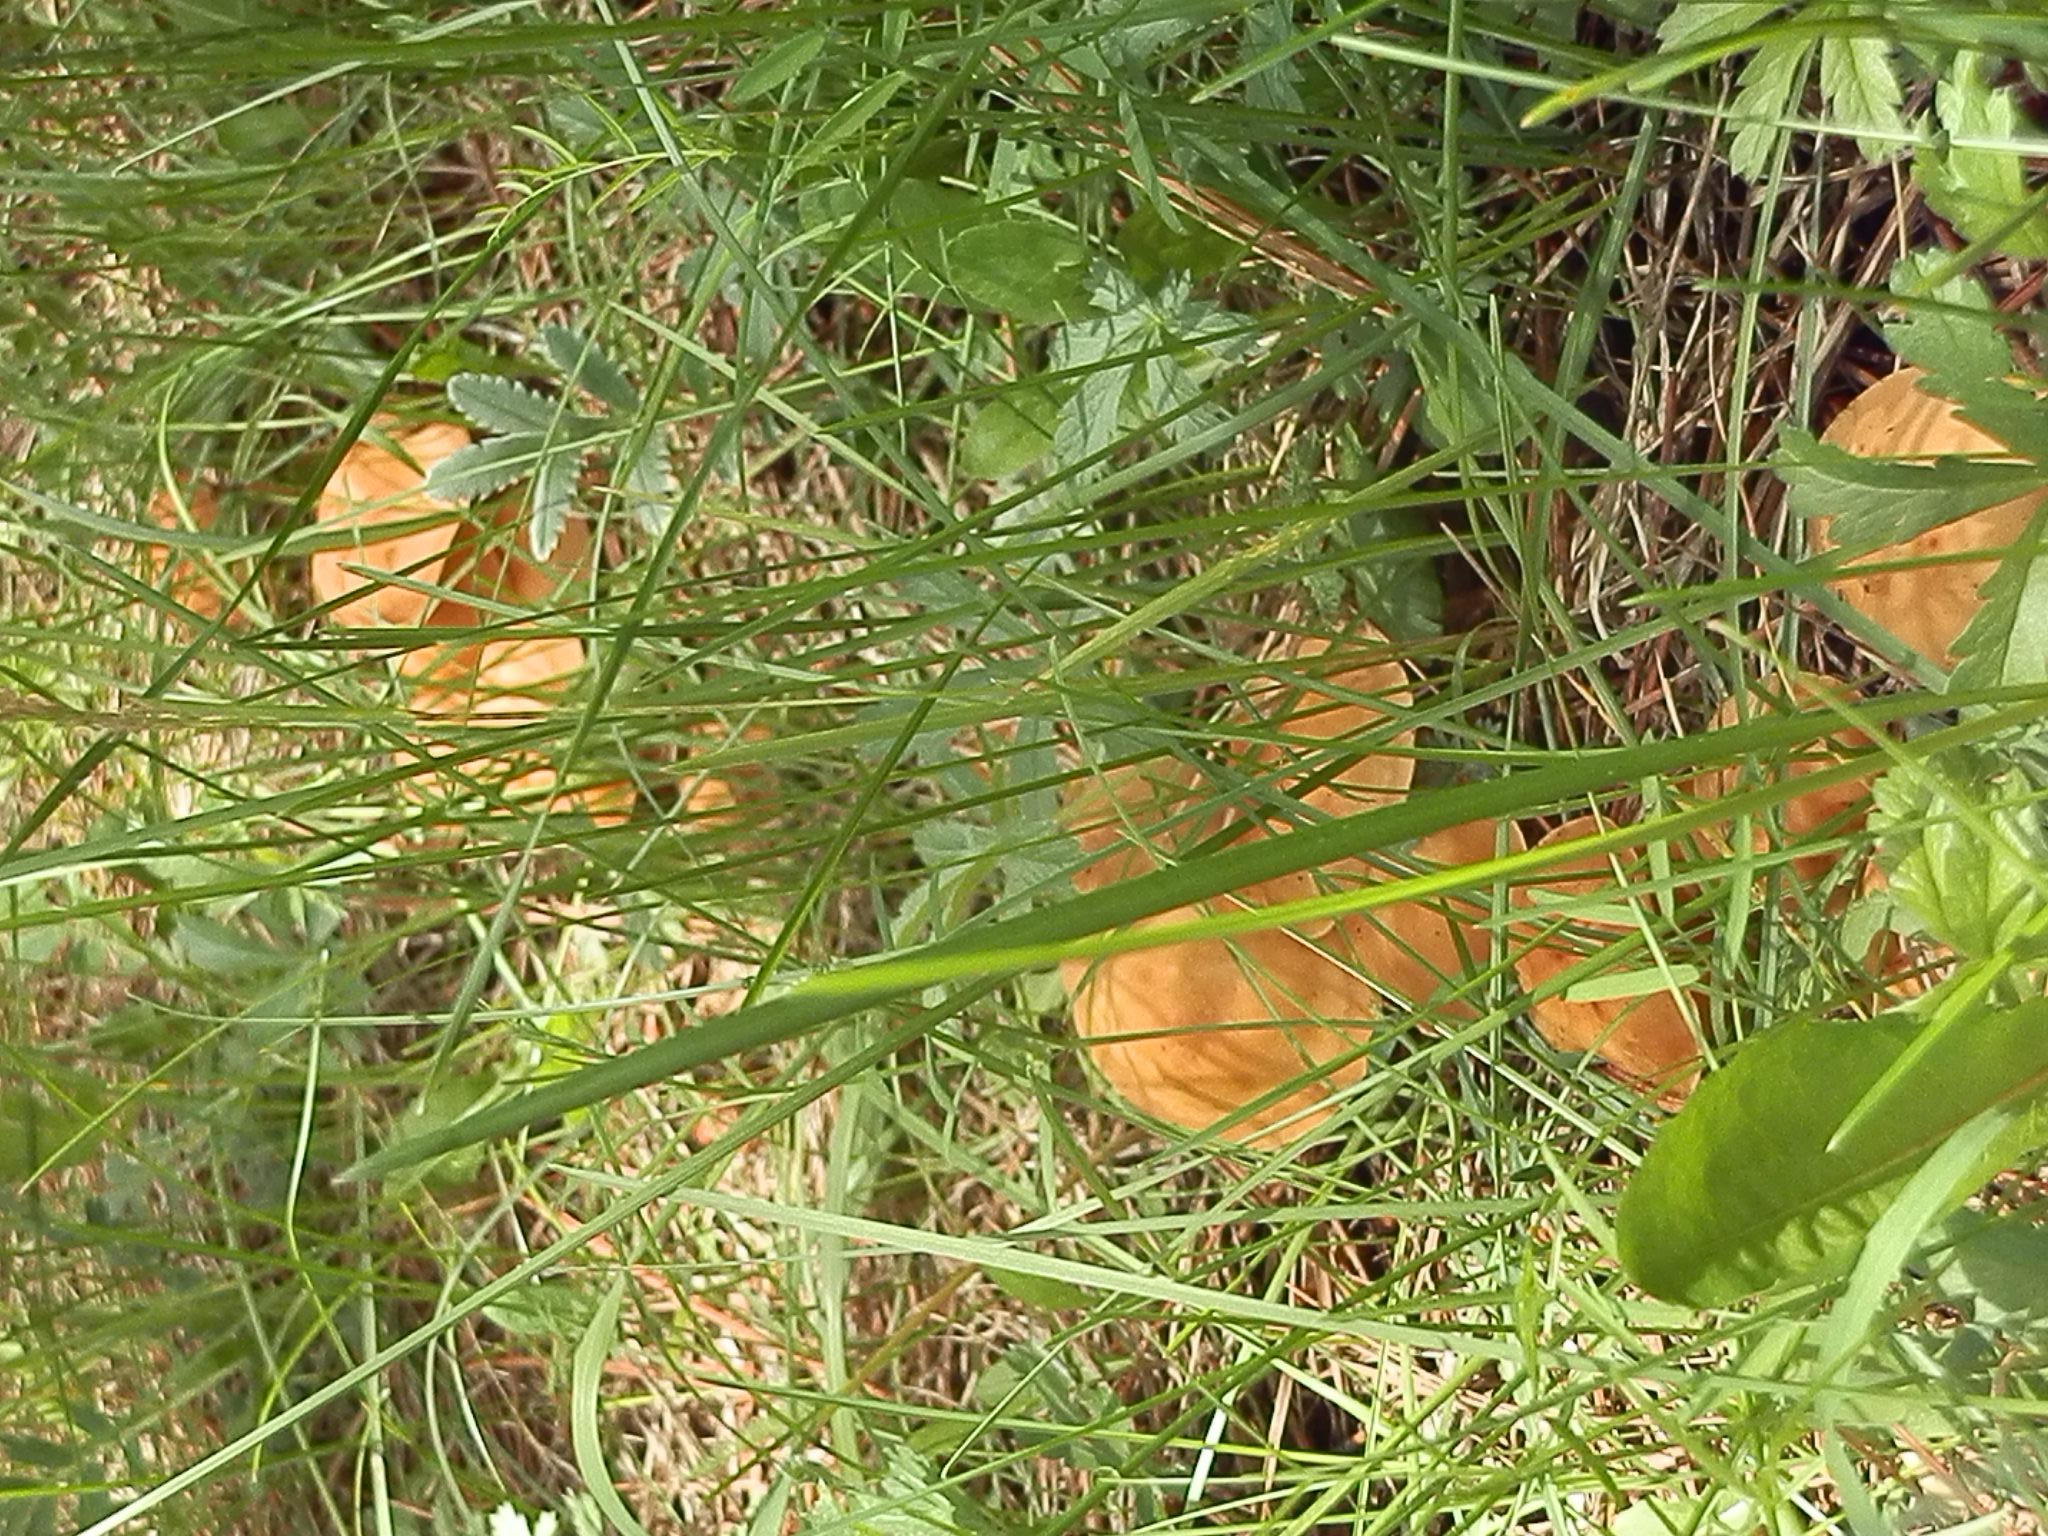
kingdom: Fungi
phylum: Basidiomycota
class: Agaricomycetes
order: Agaricales
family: Omphalotaceae
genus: Gymnopus
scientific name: Gymnopus dryophilus
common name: Penny top
